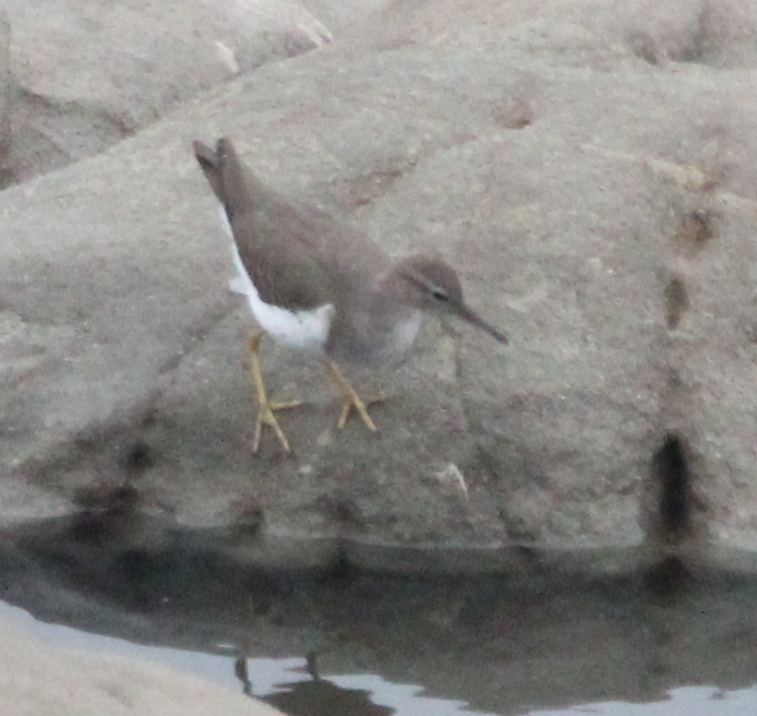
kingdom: Animalia
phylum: Chordata
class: Aves
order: Charadriiformes
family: Scolopacidae
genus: Actitis
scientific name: Actitis macularius
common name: Spotted sandpiper
